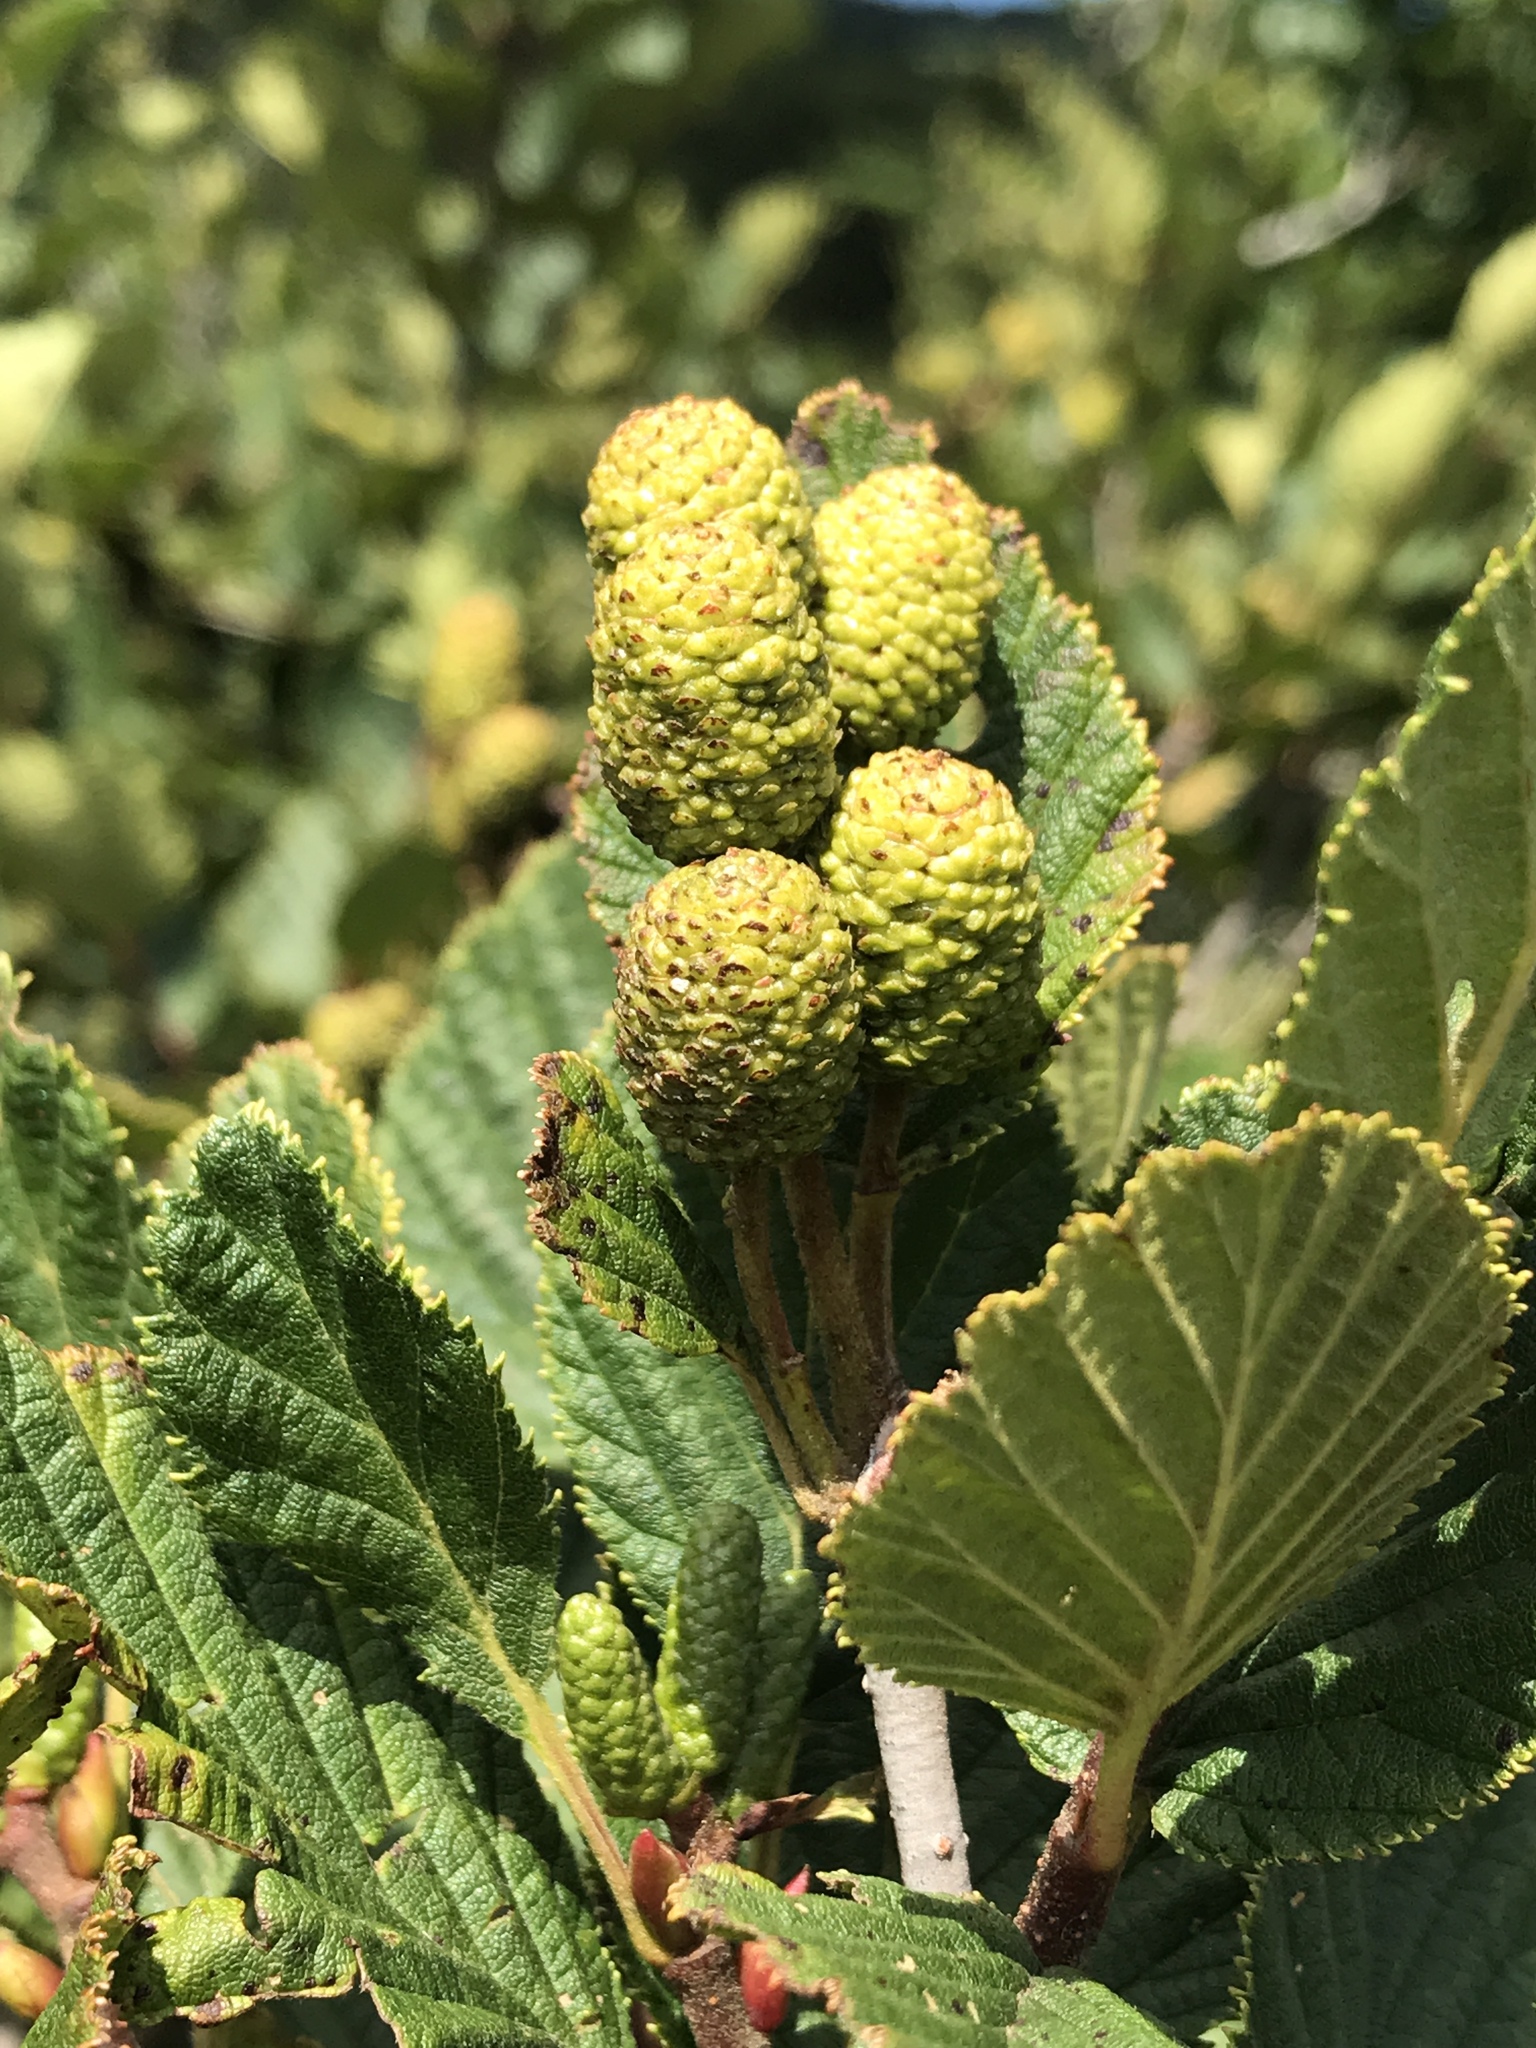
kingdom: Plantae
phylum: Tracheophyta
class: Magnoliopsida
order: Fagales
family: Betulaceae
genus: Alnus
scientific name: Alnus alnobetula
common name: Green alder
